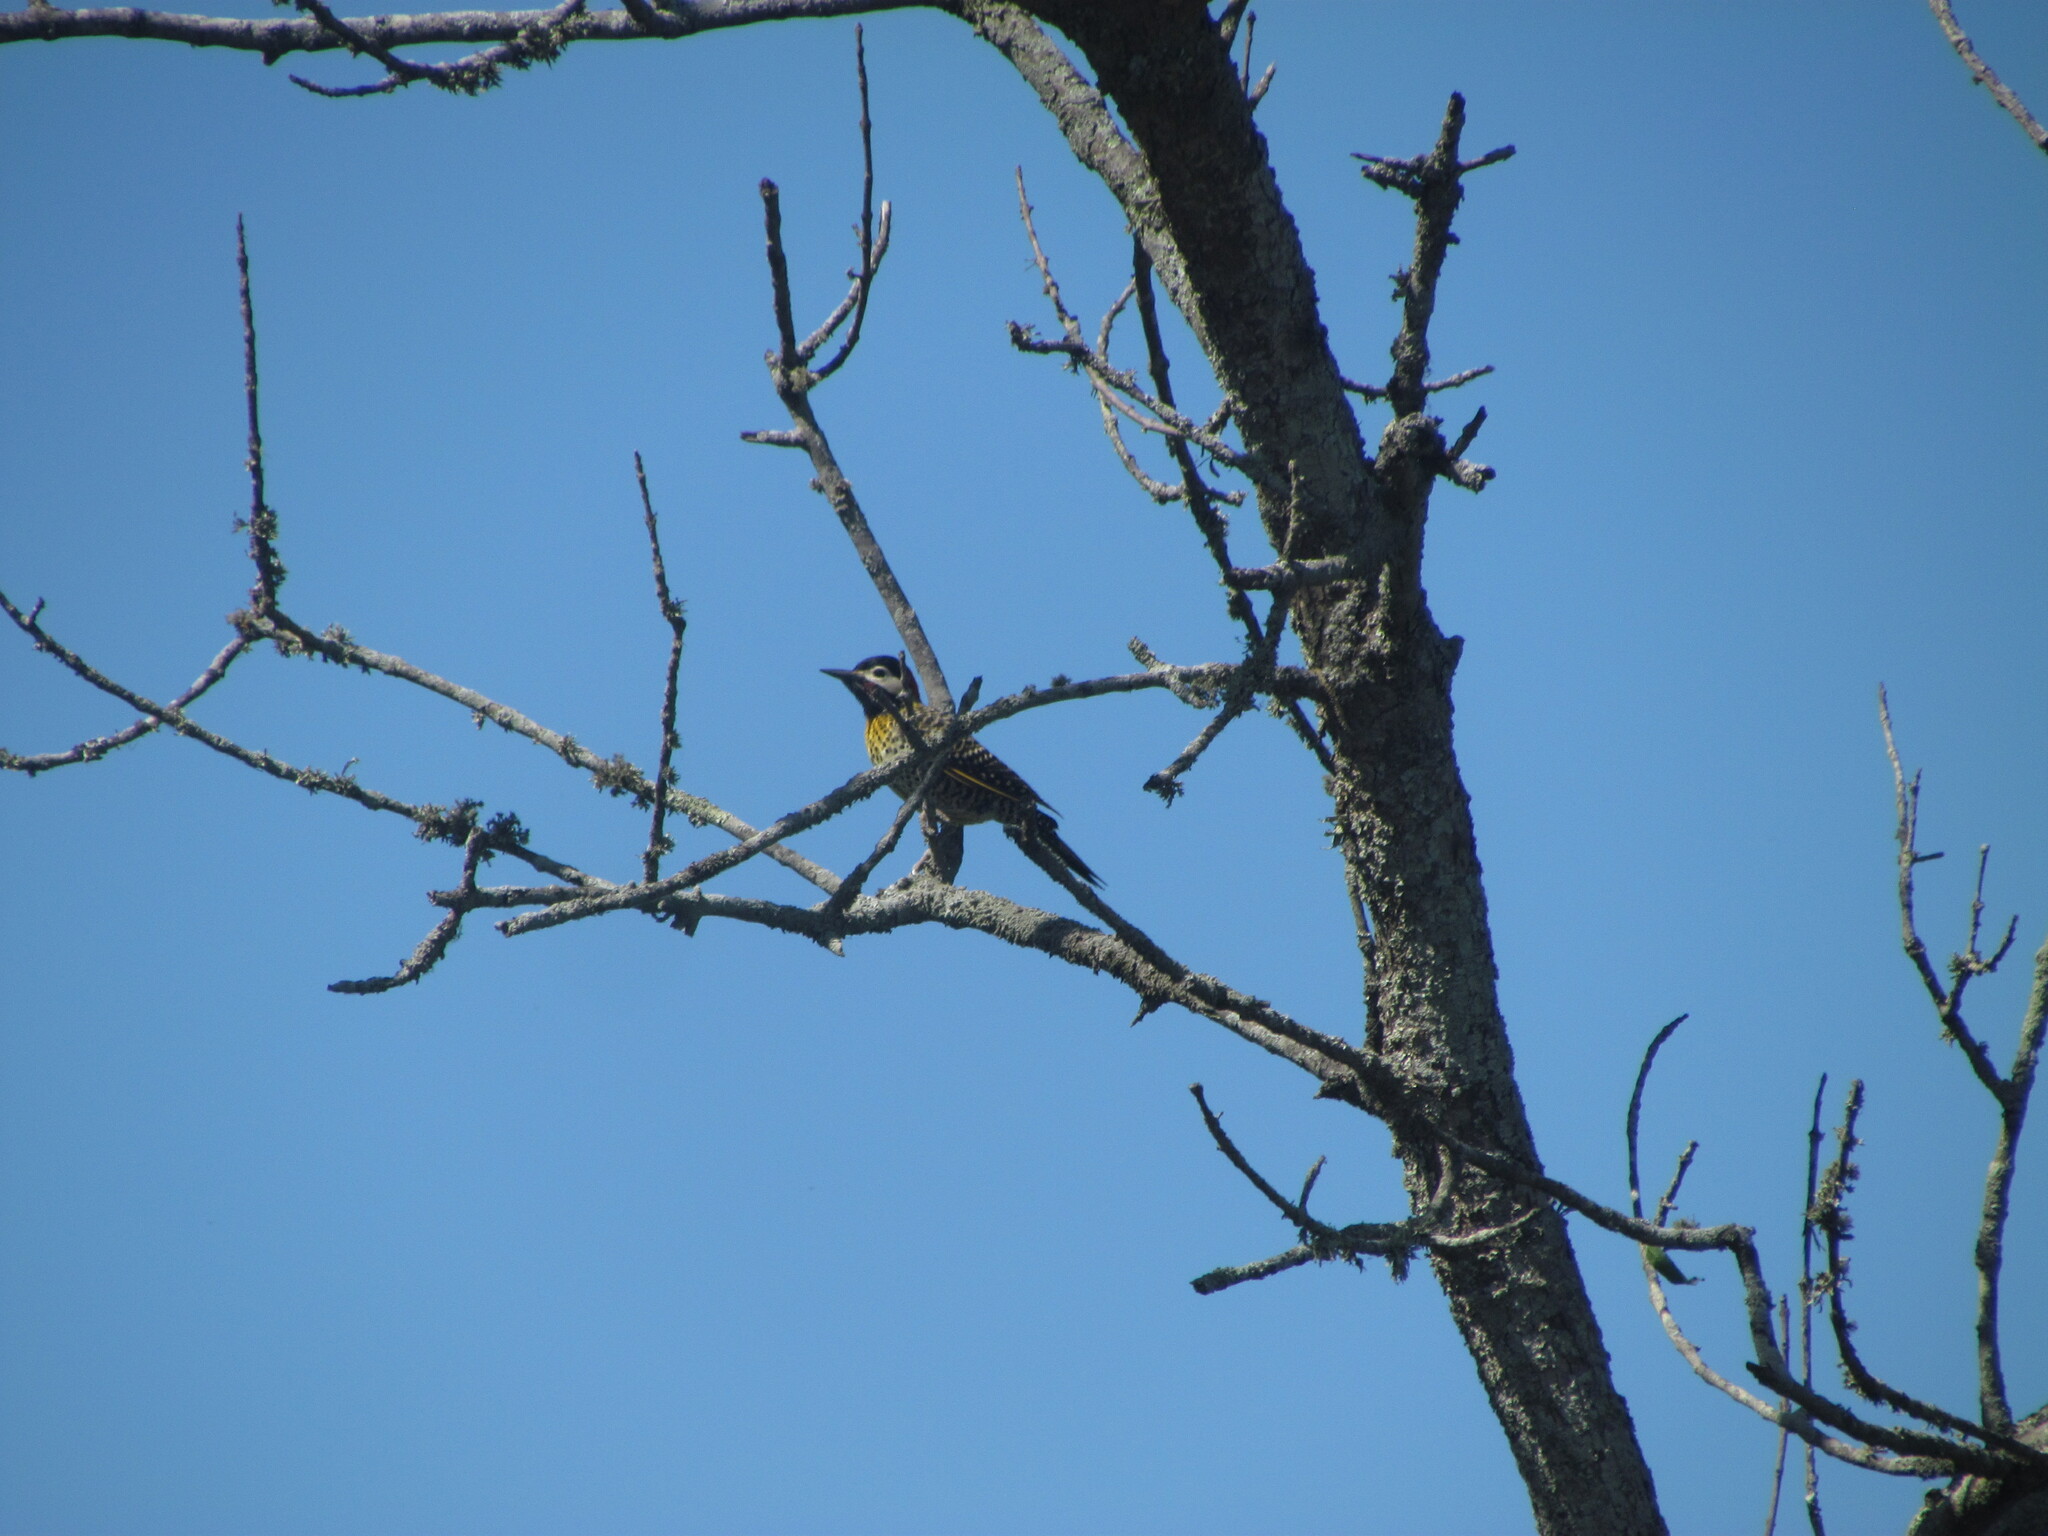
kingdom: Animalia
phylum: Chordata
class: Aves
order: Piciformes
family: Picidae
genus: Colaptes
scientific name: Colaptes melanochloros
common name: Green-barred woodpecker
